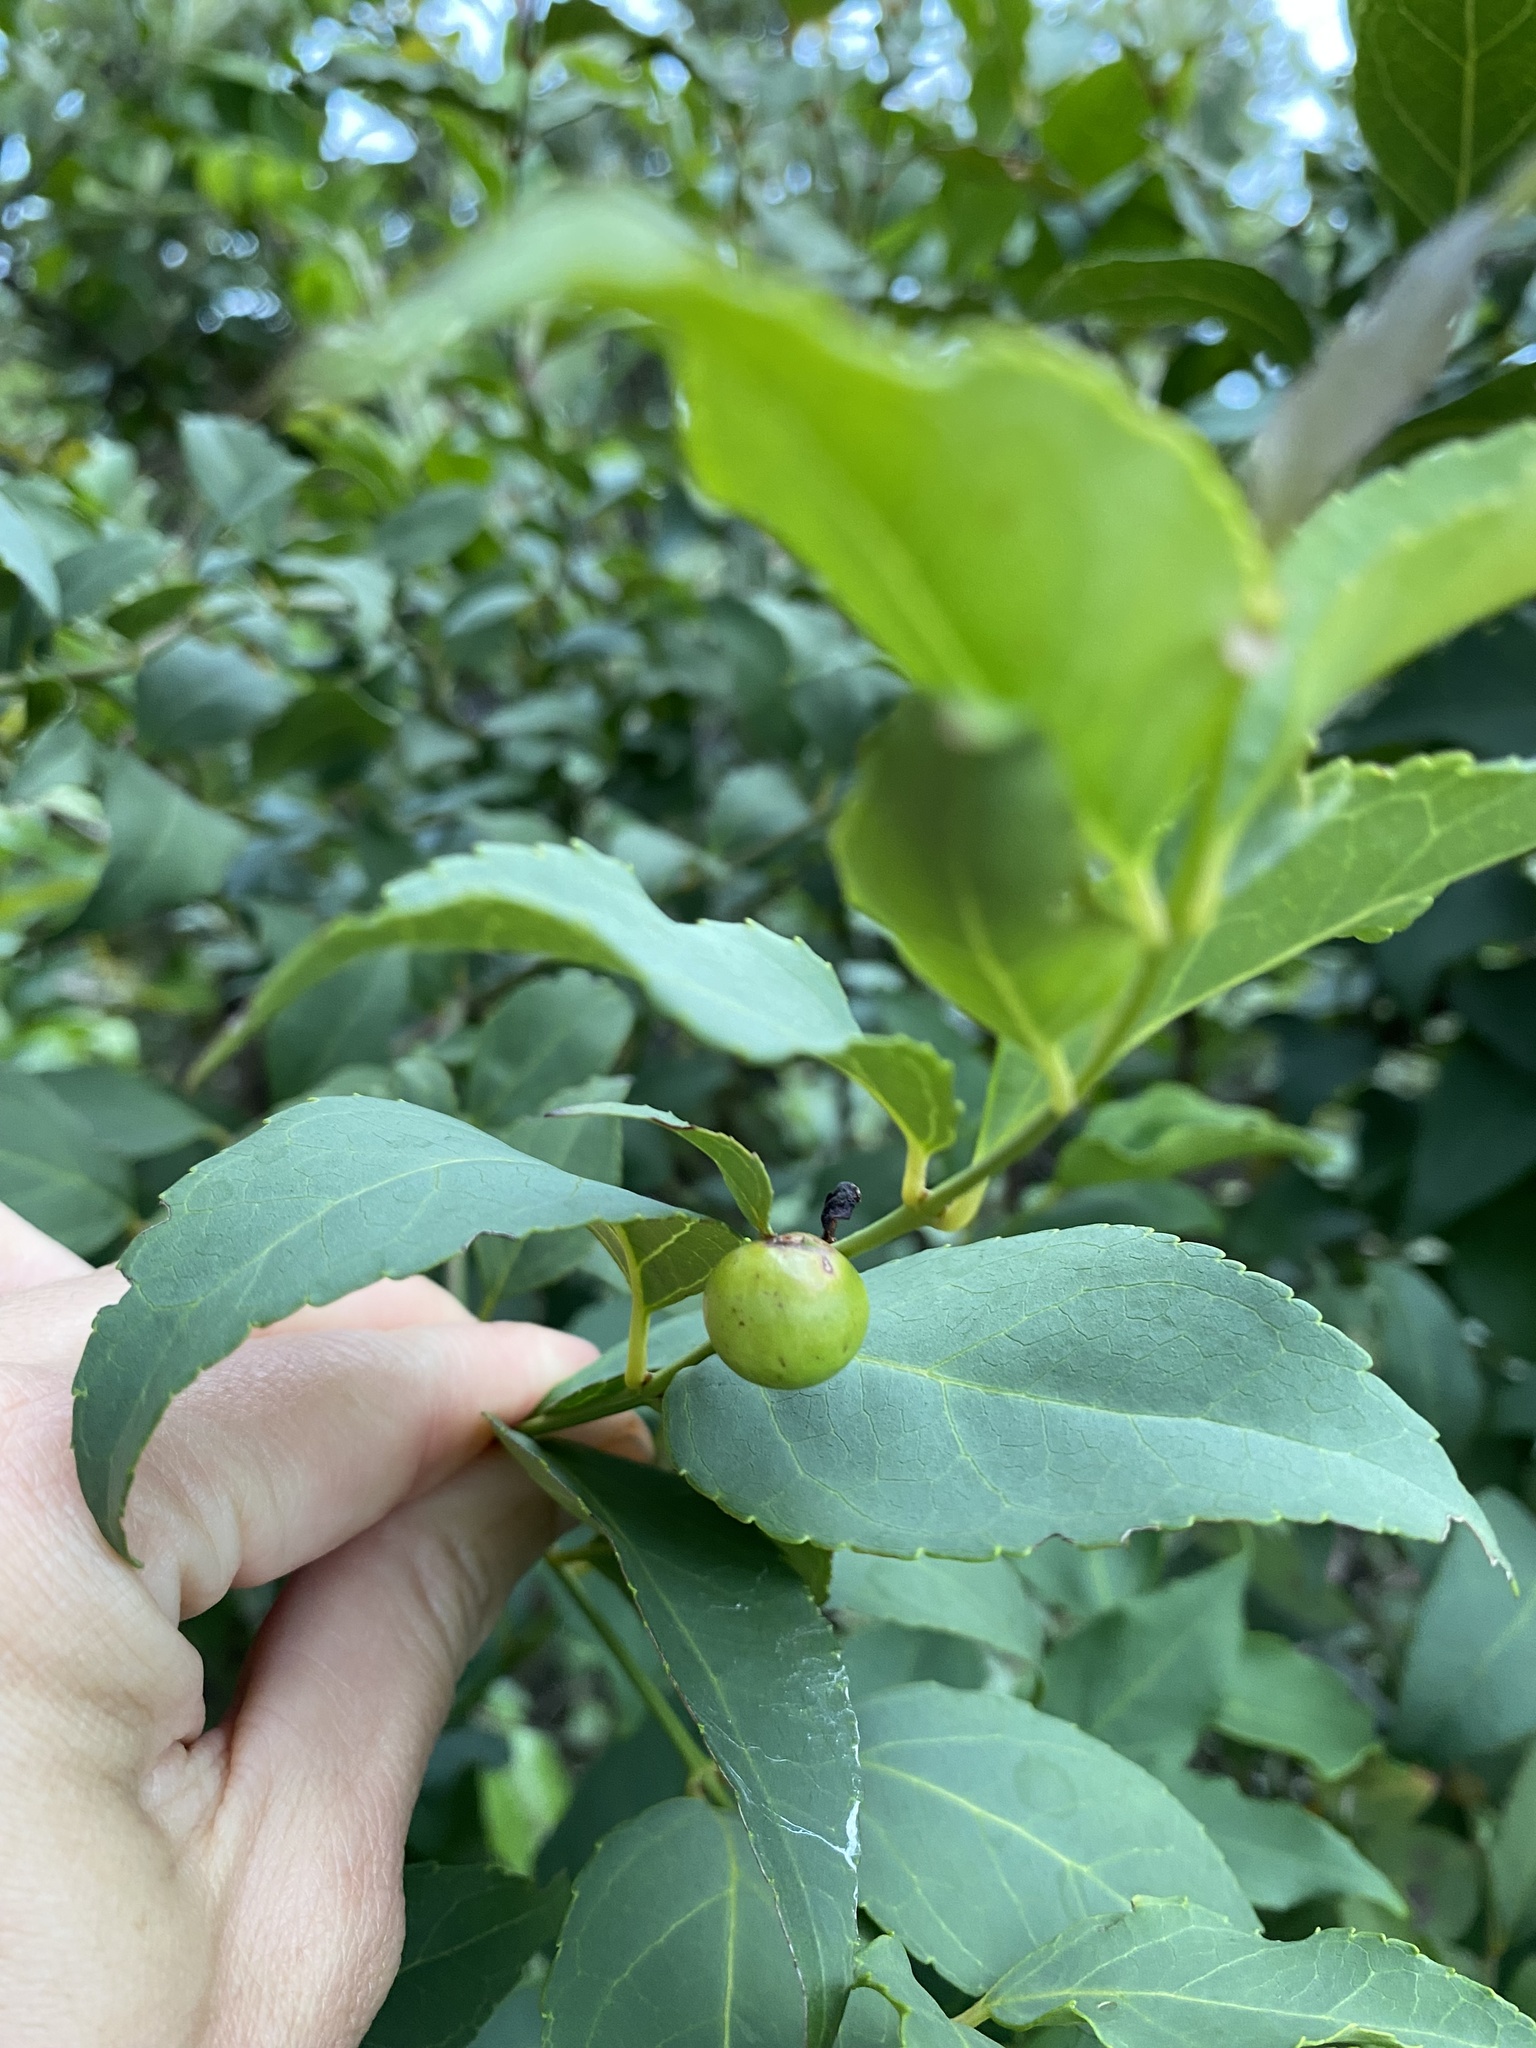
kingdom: Plantae
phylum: Tracheophyta
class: Magnoliopsida
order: Lamiales
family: Stilbaceae
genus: Halleria
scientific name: Halleria lucida
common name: Tree fuschia
